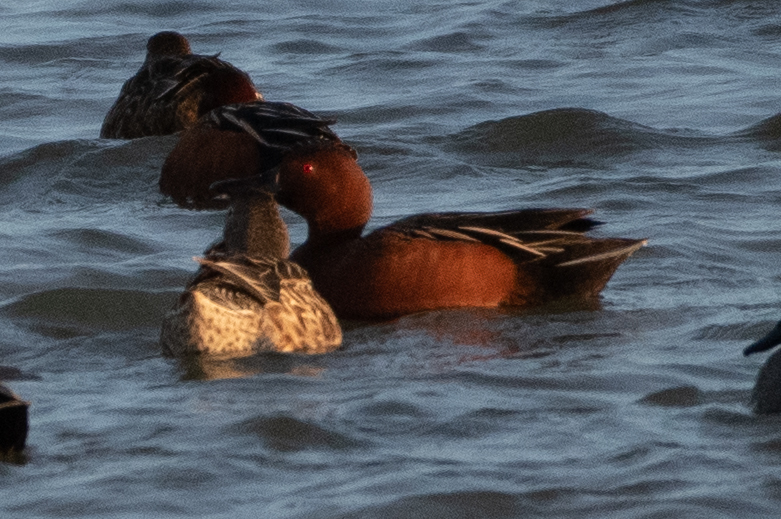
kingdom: Animalia
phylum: Chordata
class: Aves
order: Anseriformes
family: Anatidae
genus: Spatula
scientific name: Spatula cyanoptera
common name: Cinnamon teal
